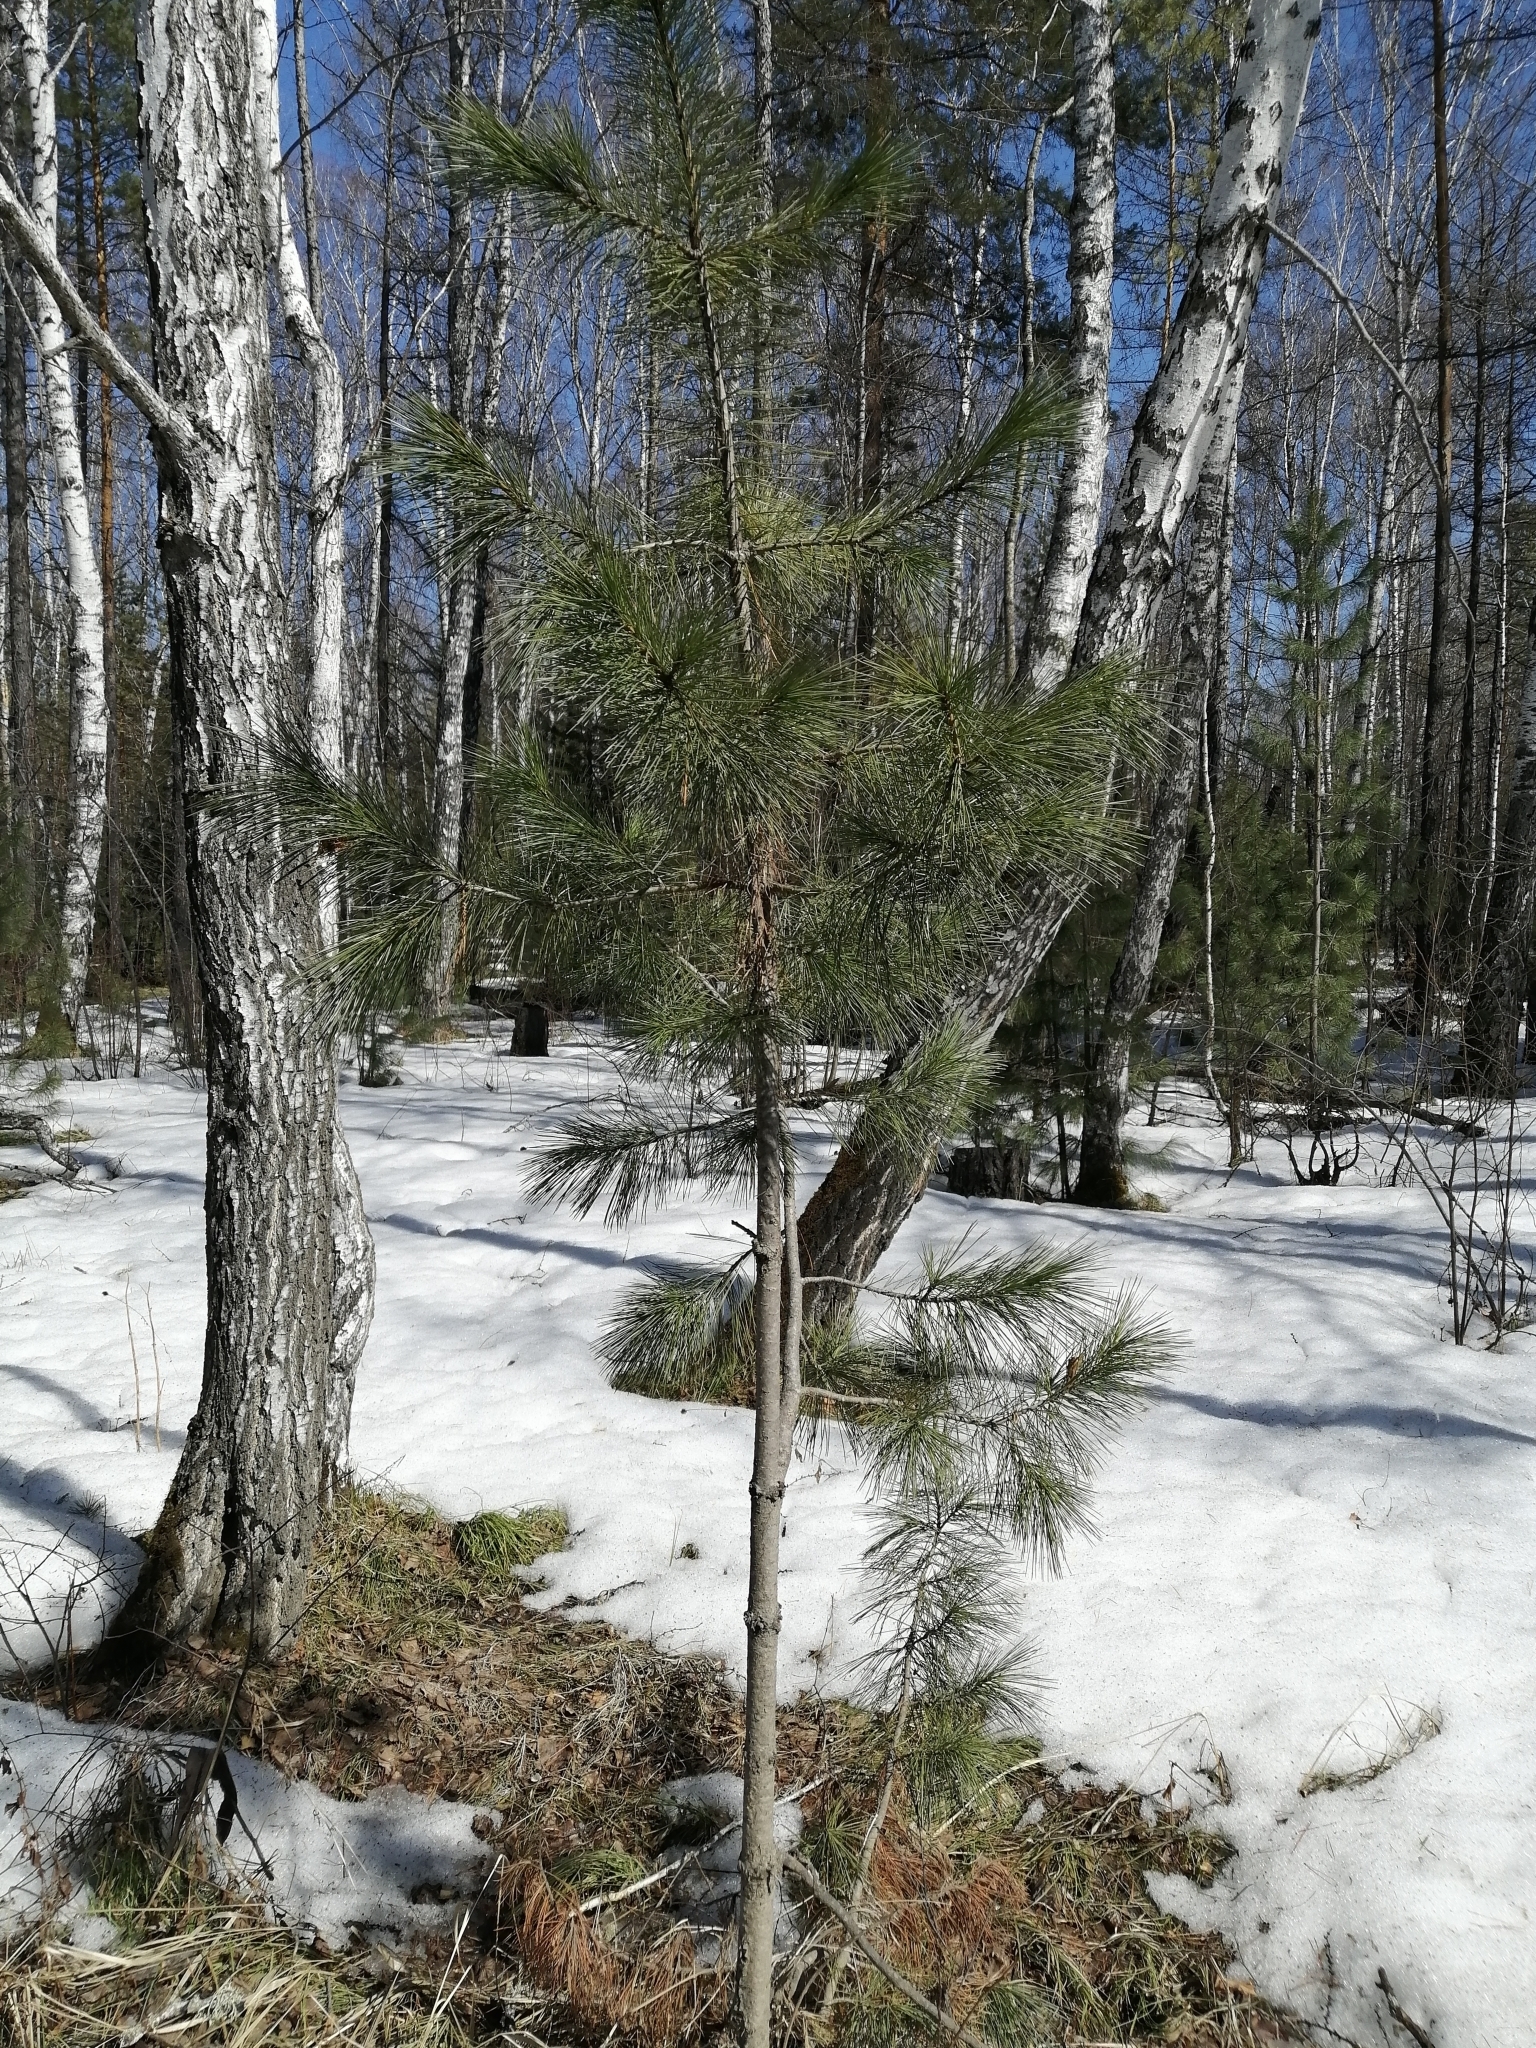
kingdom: Plantae
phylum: Tracheophyta
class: Pinopsida
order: Pinales
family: Pinaceae
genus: Pinus
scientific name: Pinus sibirica
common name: Siberian pine
